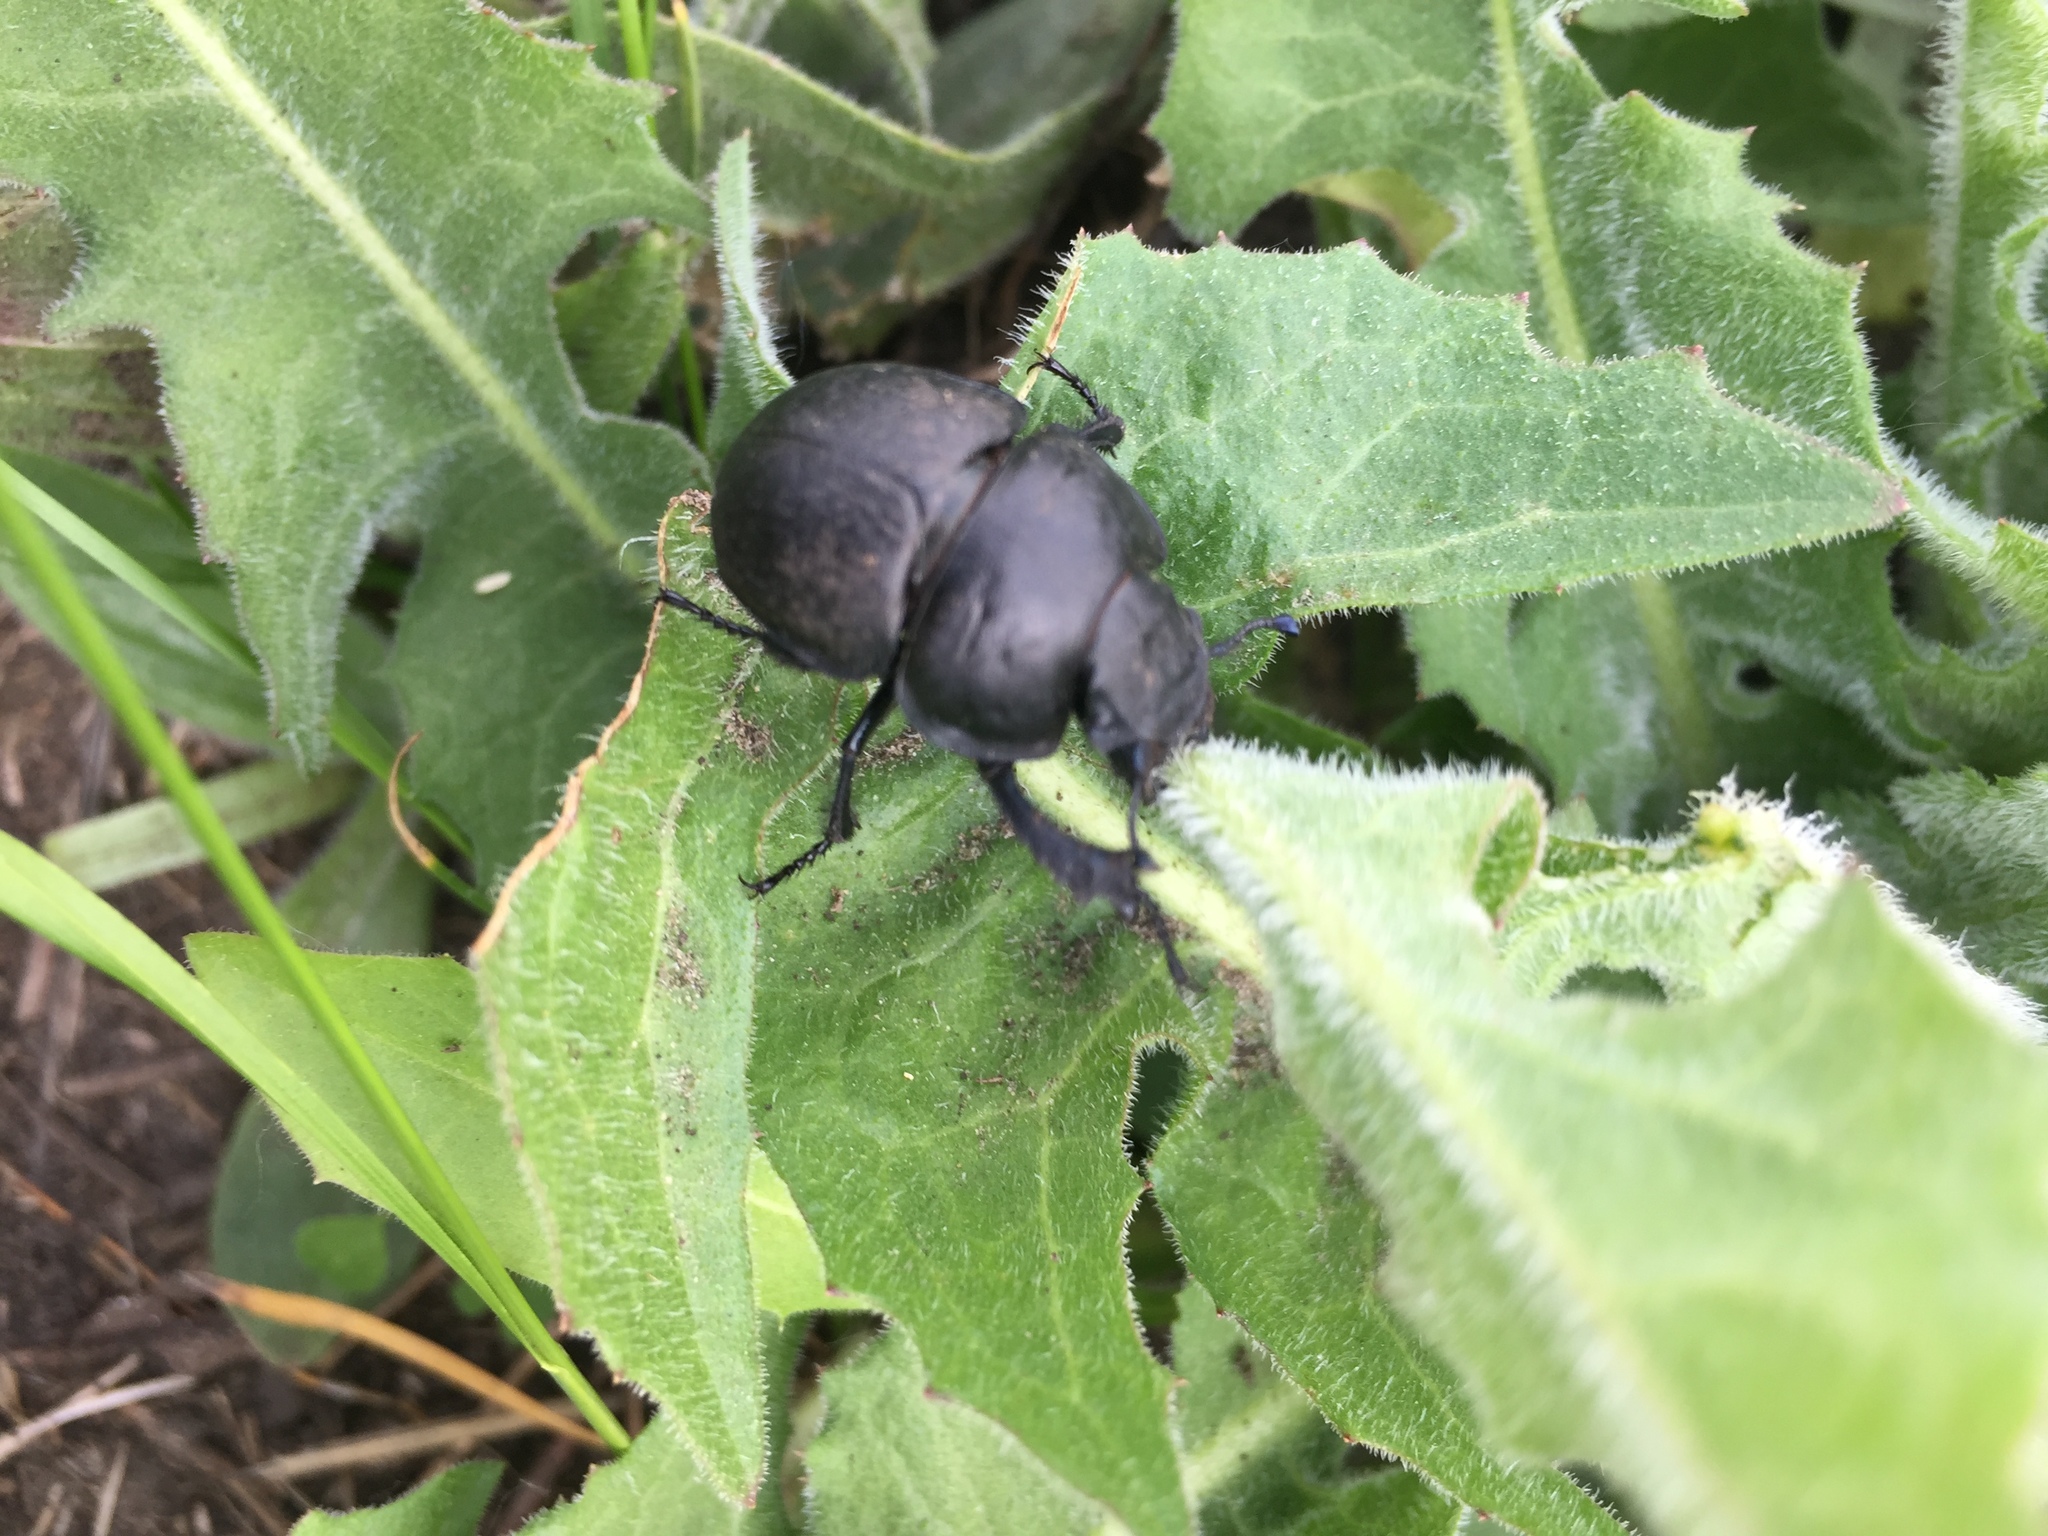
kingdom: Animalia
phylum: Arthropoda
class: Insecta
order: Coleoptera
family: Geotrupidae
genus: Lethrus
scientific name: Lethrus apterus
